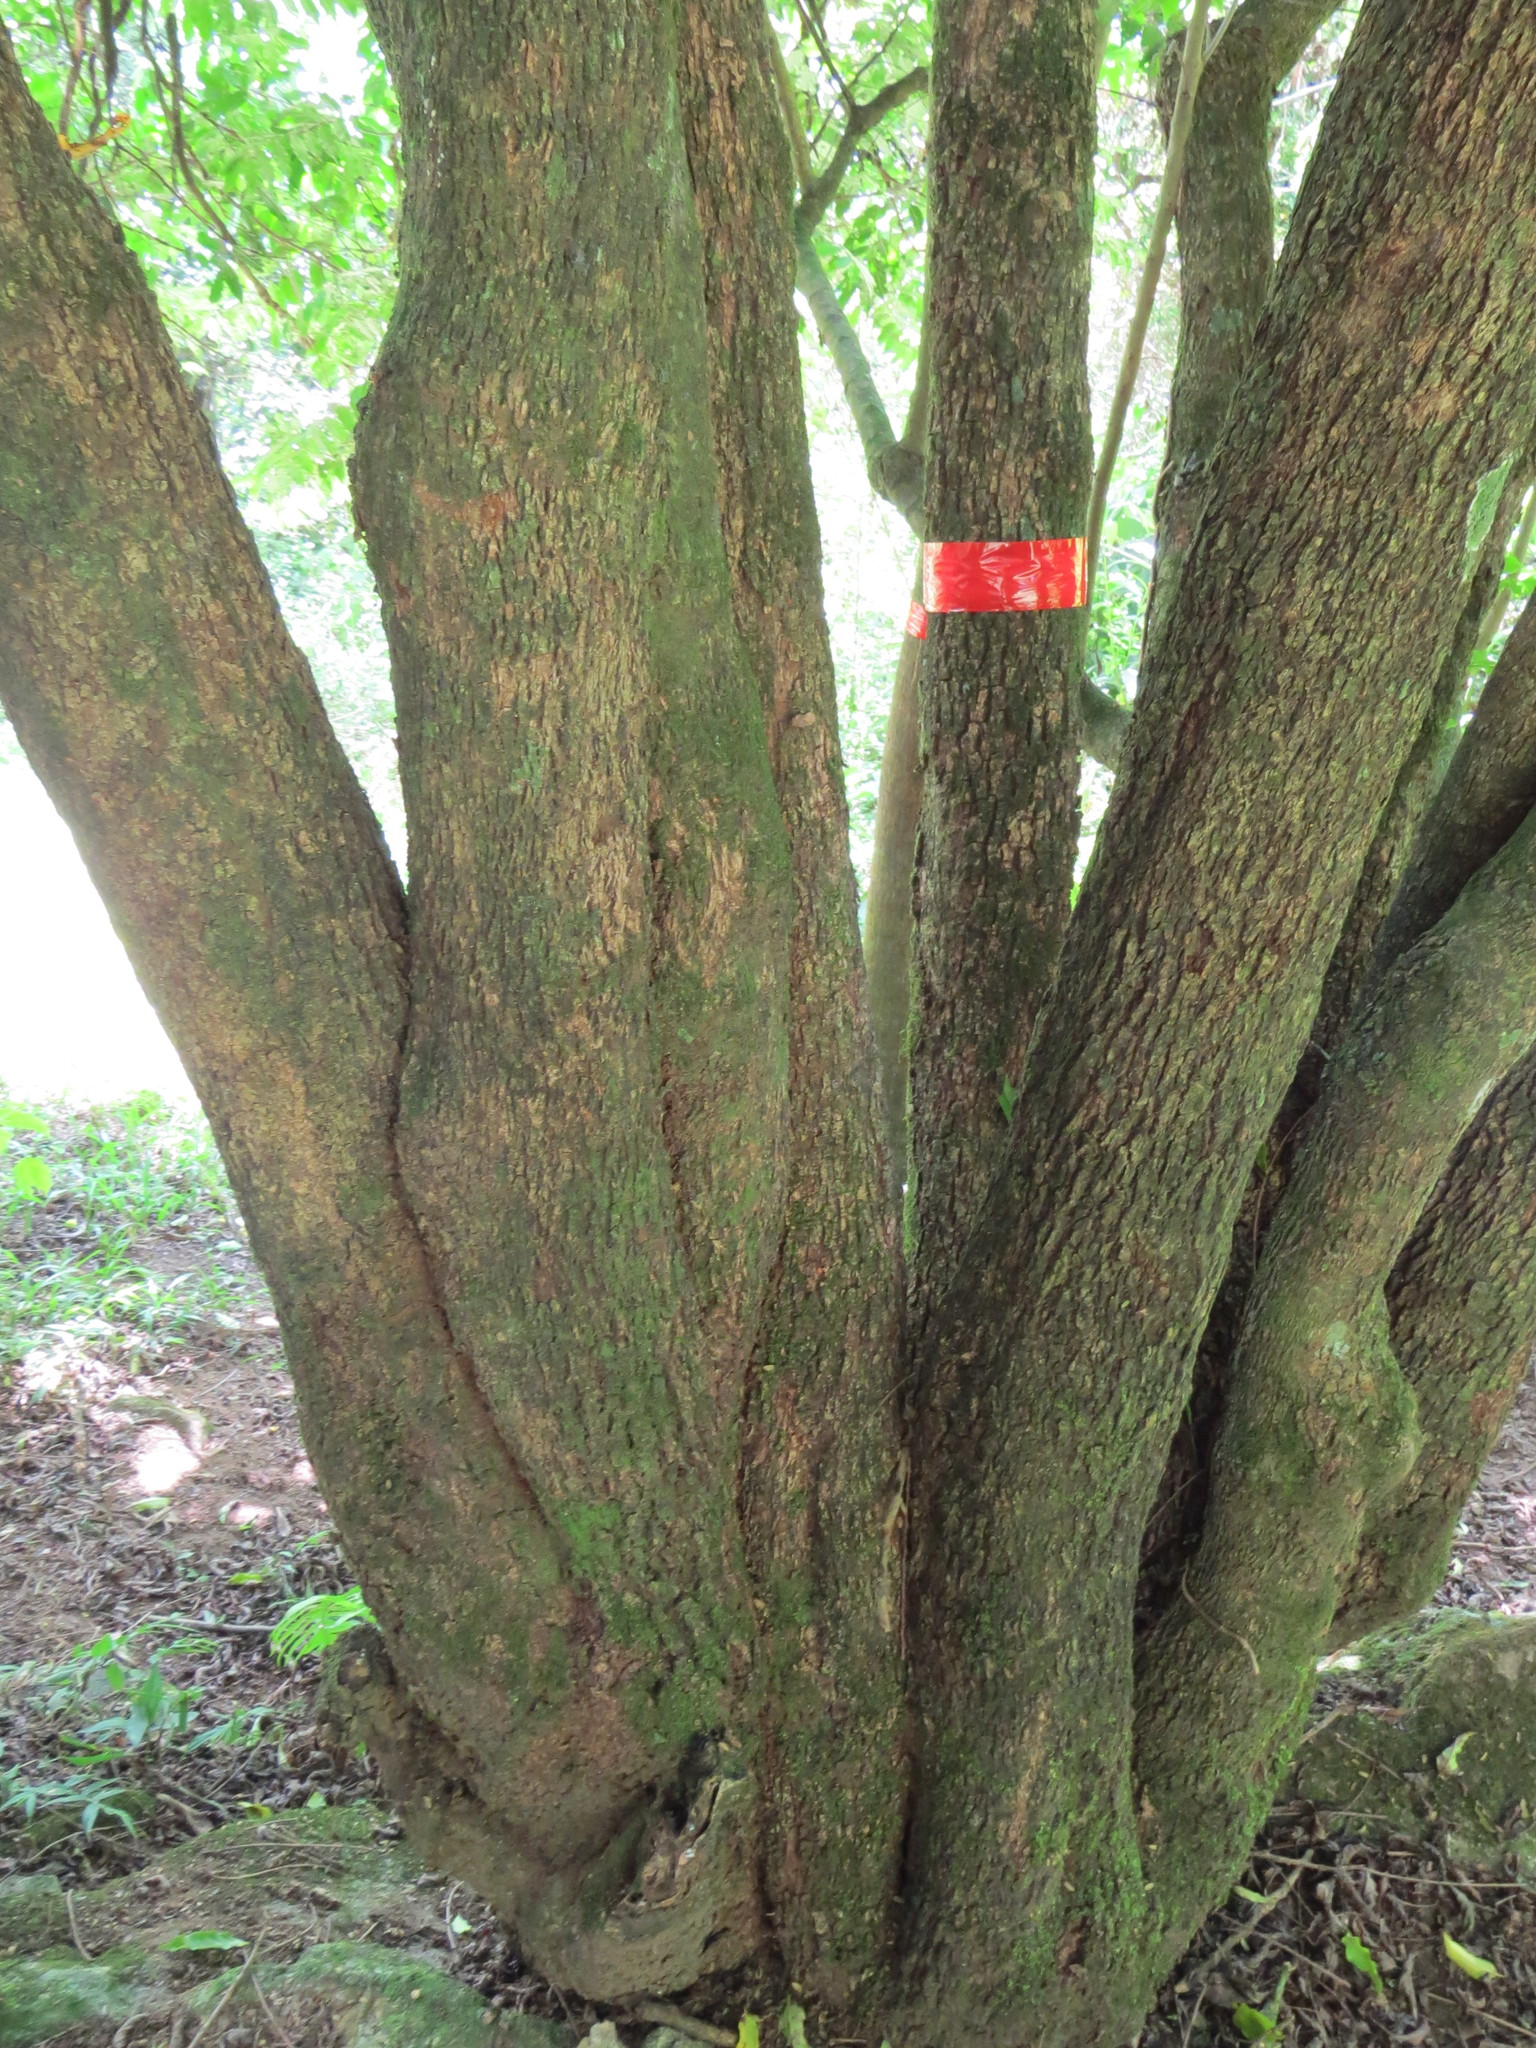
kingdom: Plantae
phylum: Tracheophyta
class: Magnoliopsida
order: Malpighiales
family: Salicaceae
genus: Casearia
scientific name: Casearia sylvestris
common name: Wild sage
